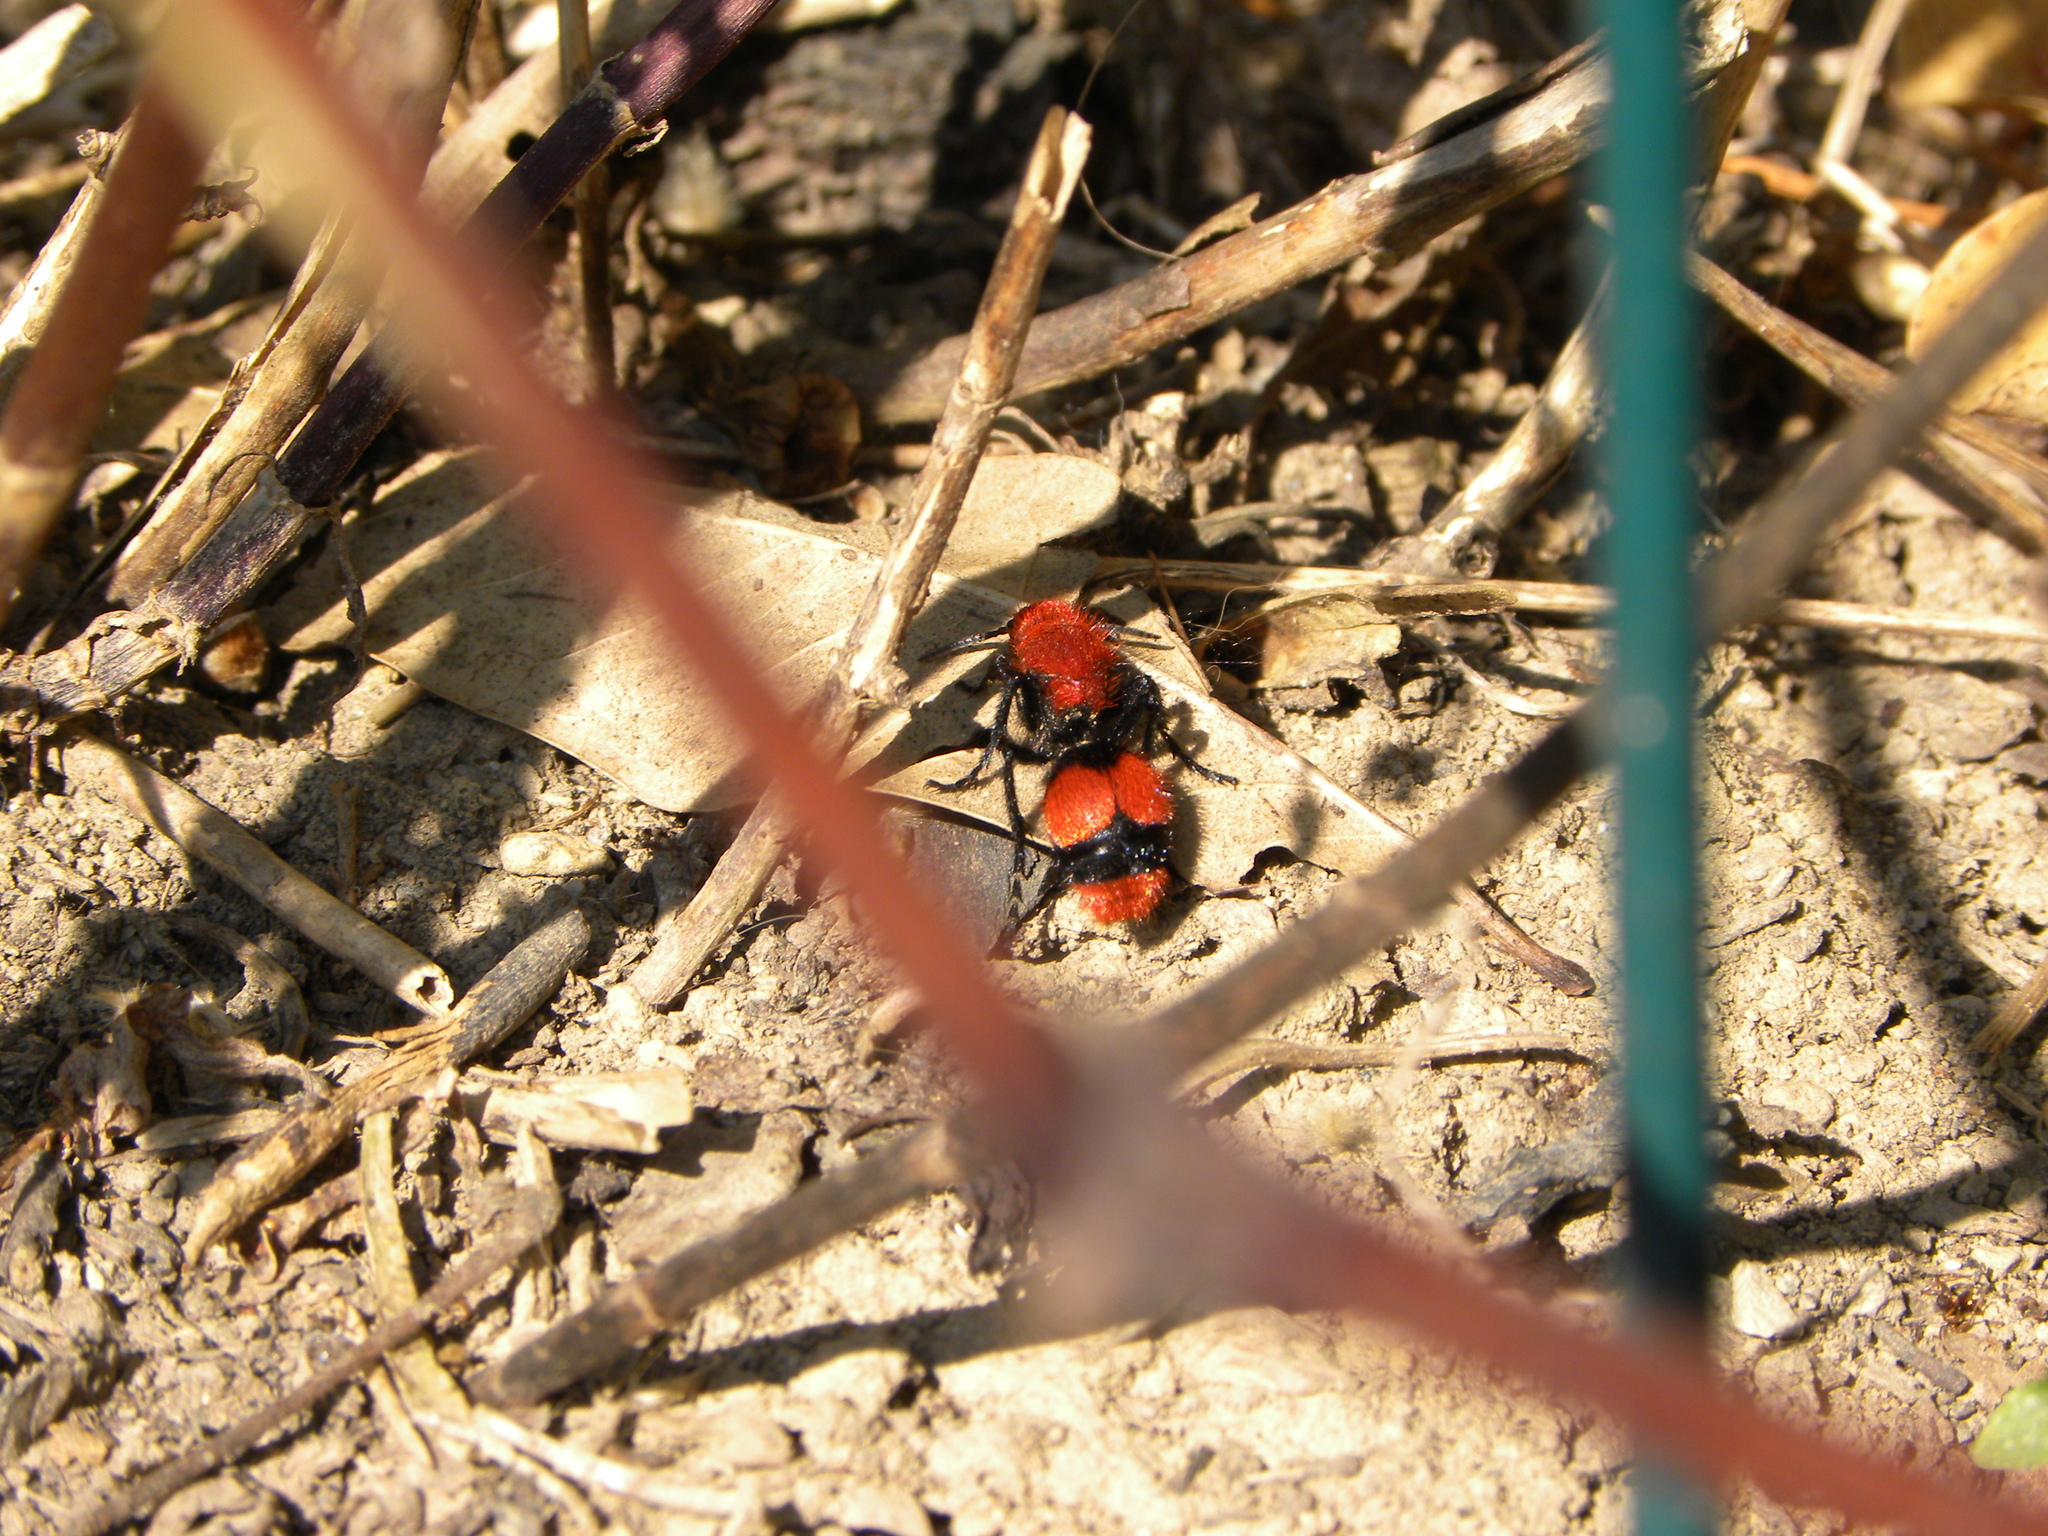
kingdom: Animalia
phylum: Arthropoda
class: Insecta
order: Hymenoptera
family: Mutillidae
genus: Dasymutilla
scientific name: Dasymutilla occidentalis
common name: Common eastern velvet ant
